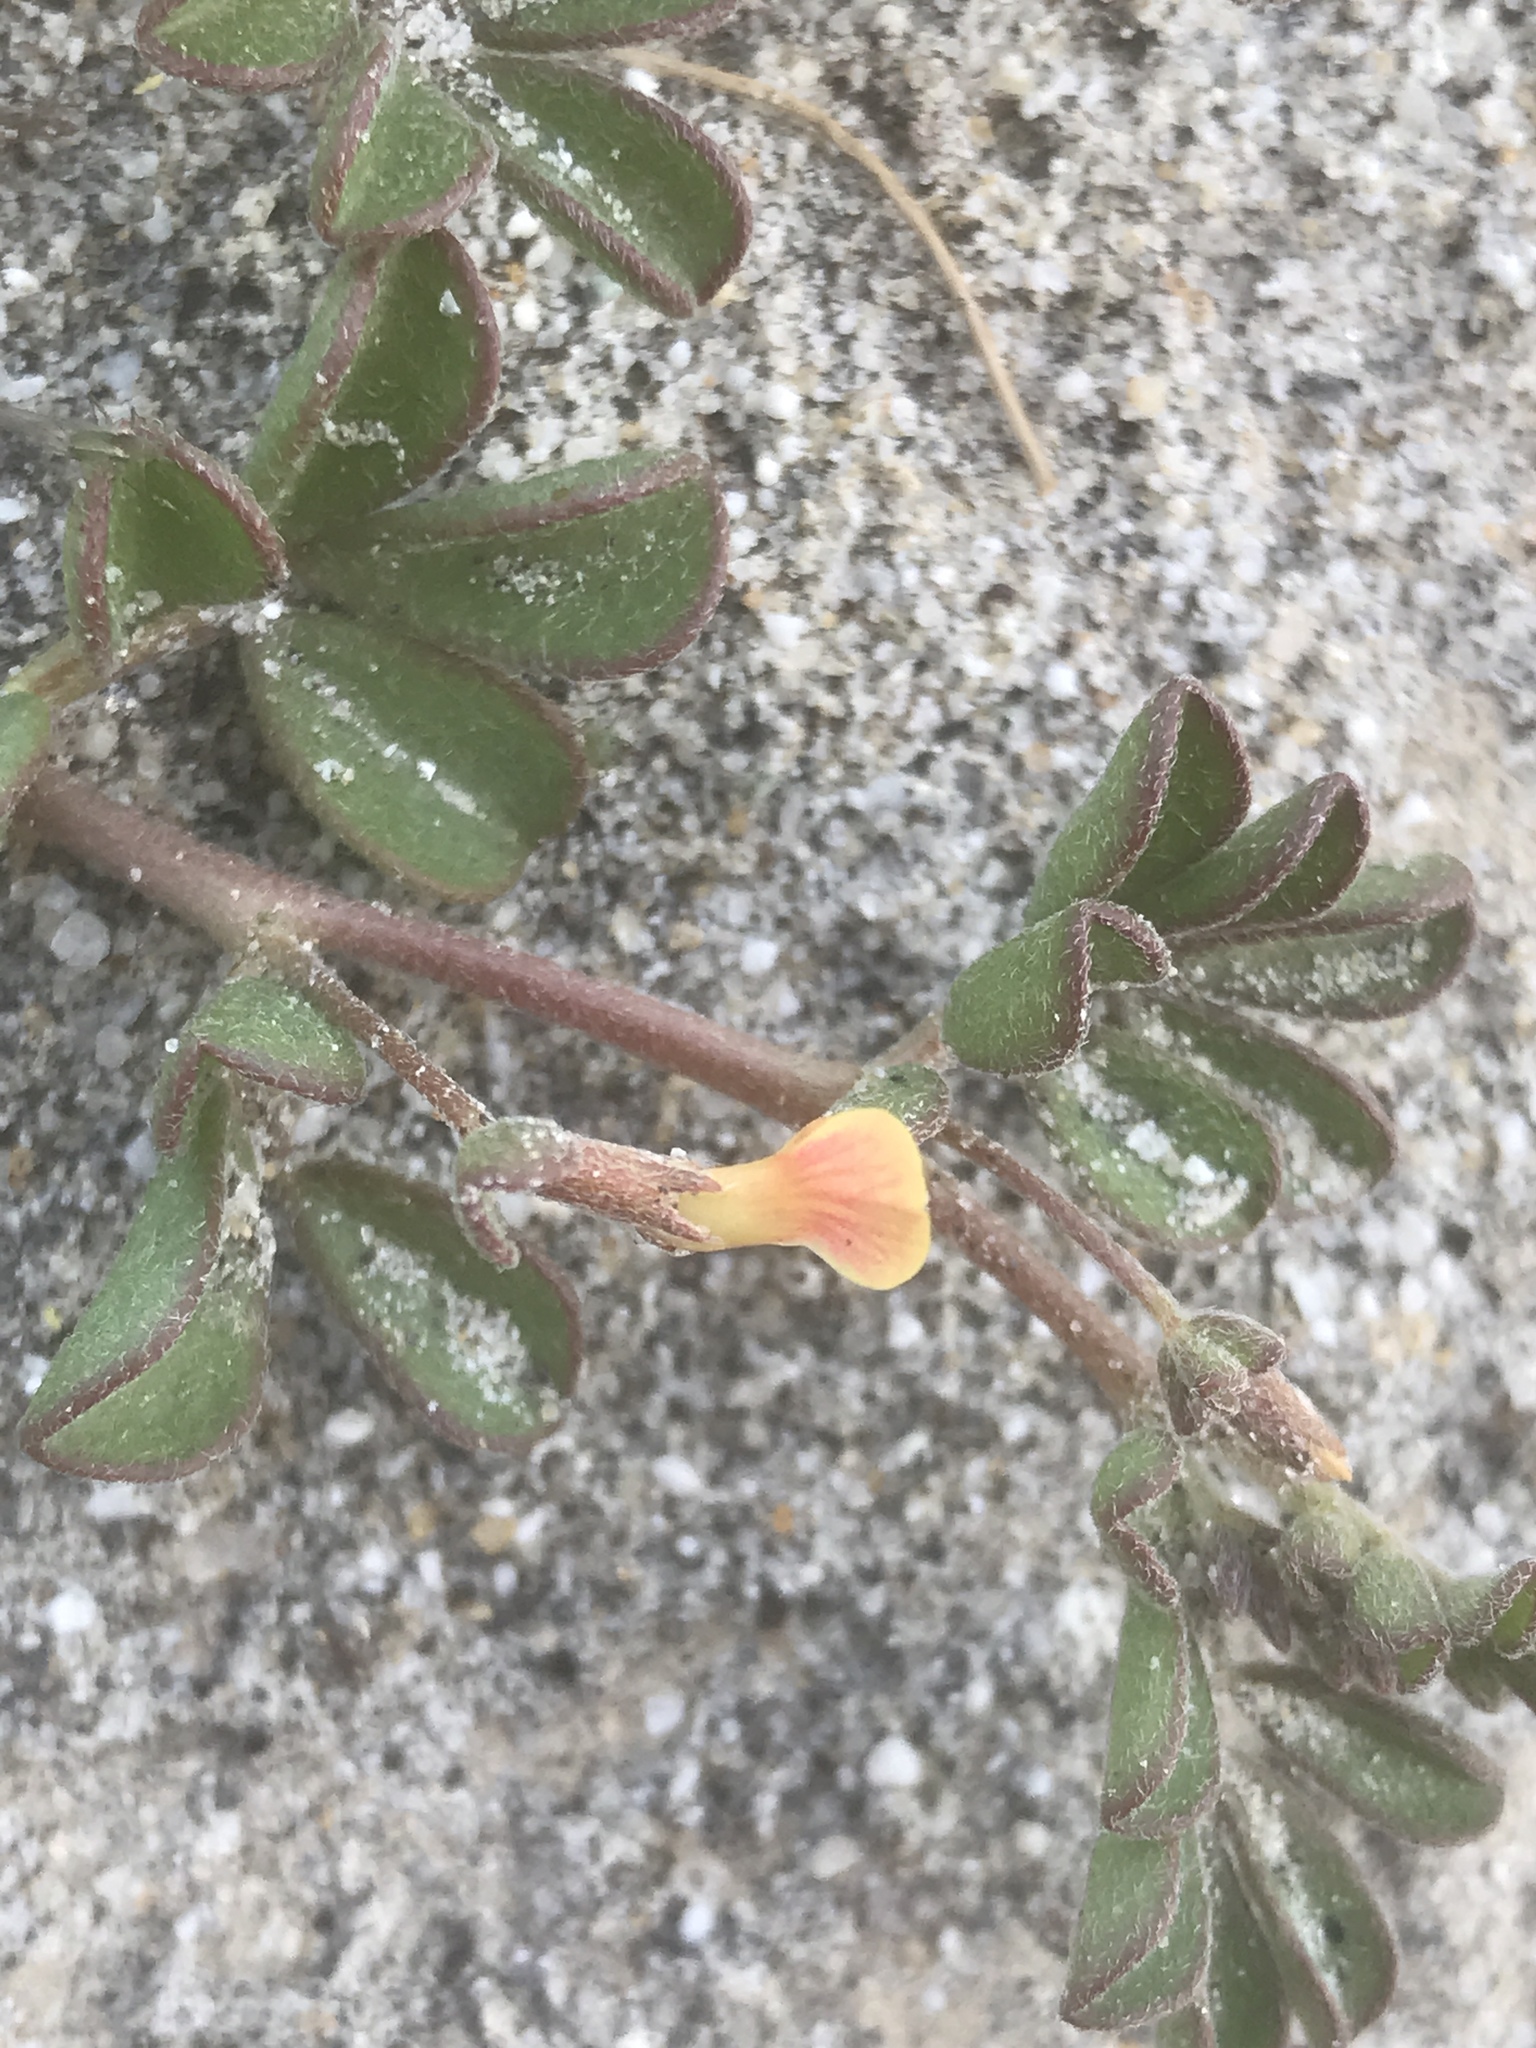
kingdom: Plantae
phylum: Tracheophyta
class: Magnoliopsida
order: Fabales
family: Fabaceae
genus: Acmispon
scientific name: Acmispon strigosus
